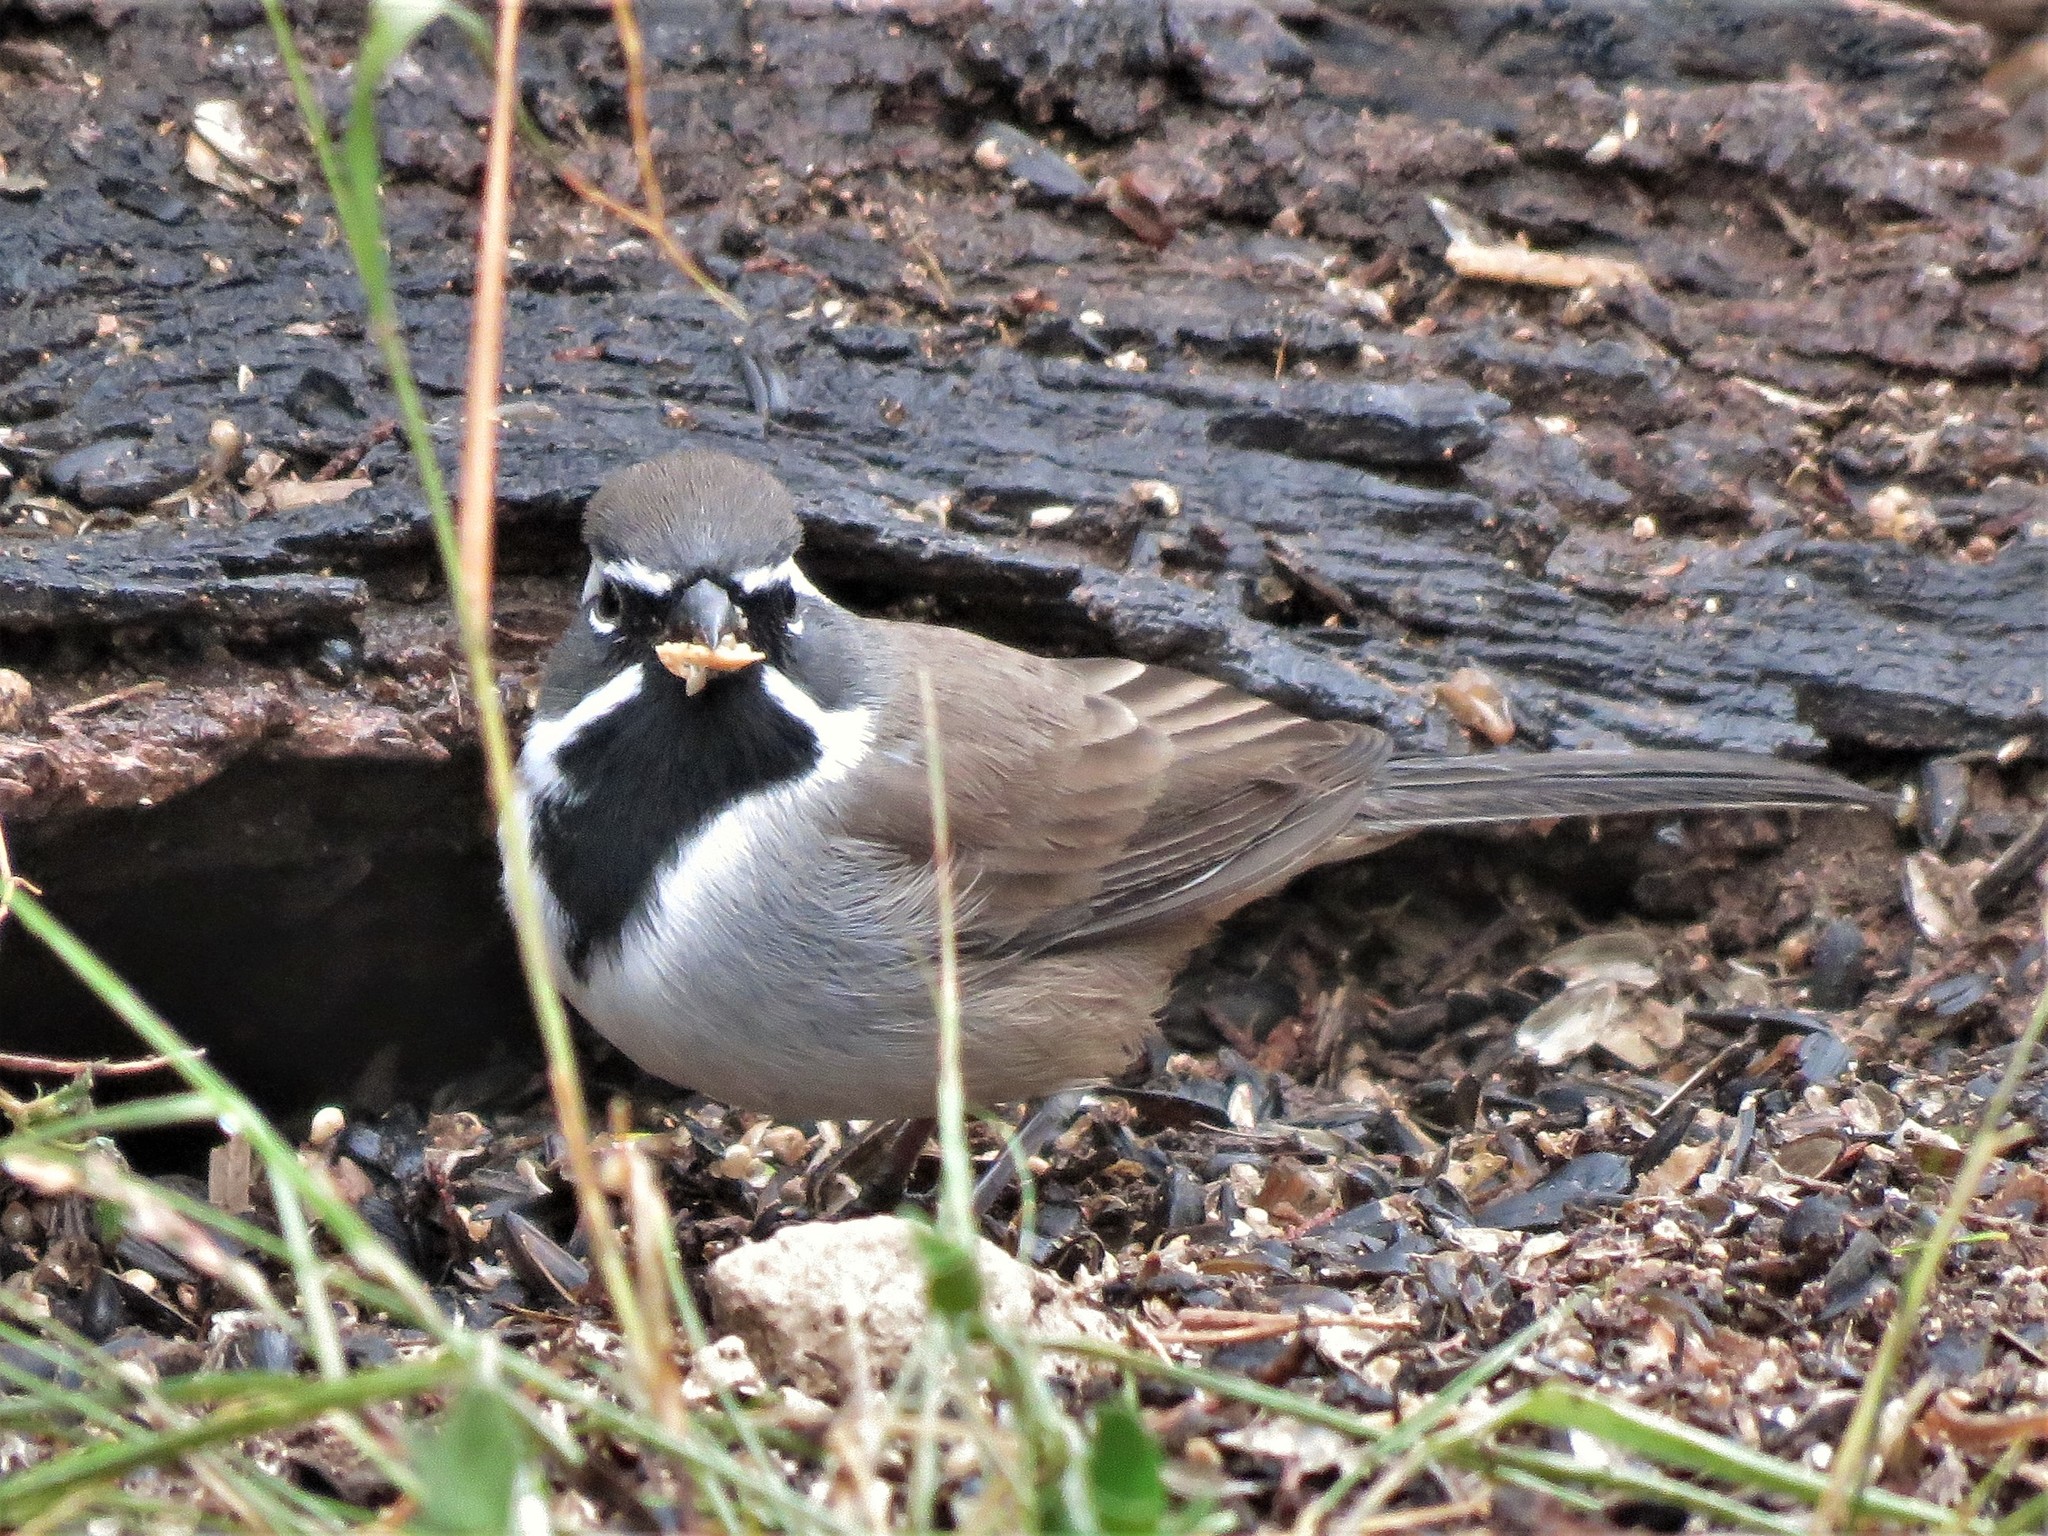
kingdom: Animalia
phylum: Chordata
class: Aves
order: Passeriformes
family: Passerellidae
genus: Amphispiza
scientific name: Amphispiza bilineata
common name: Black-throated sparrow
